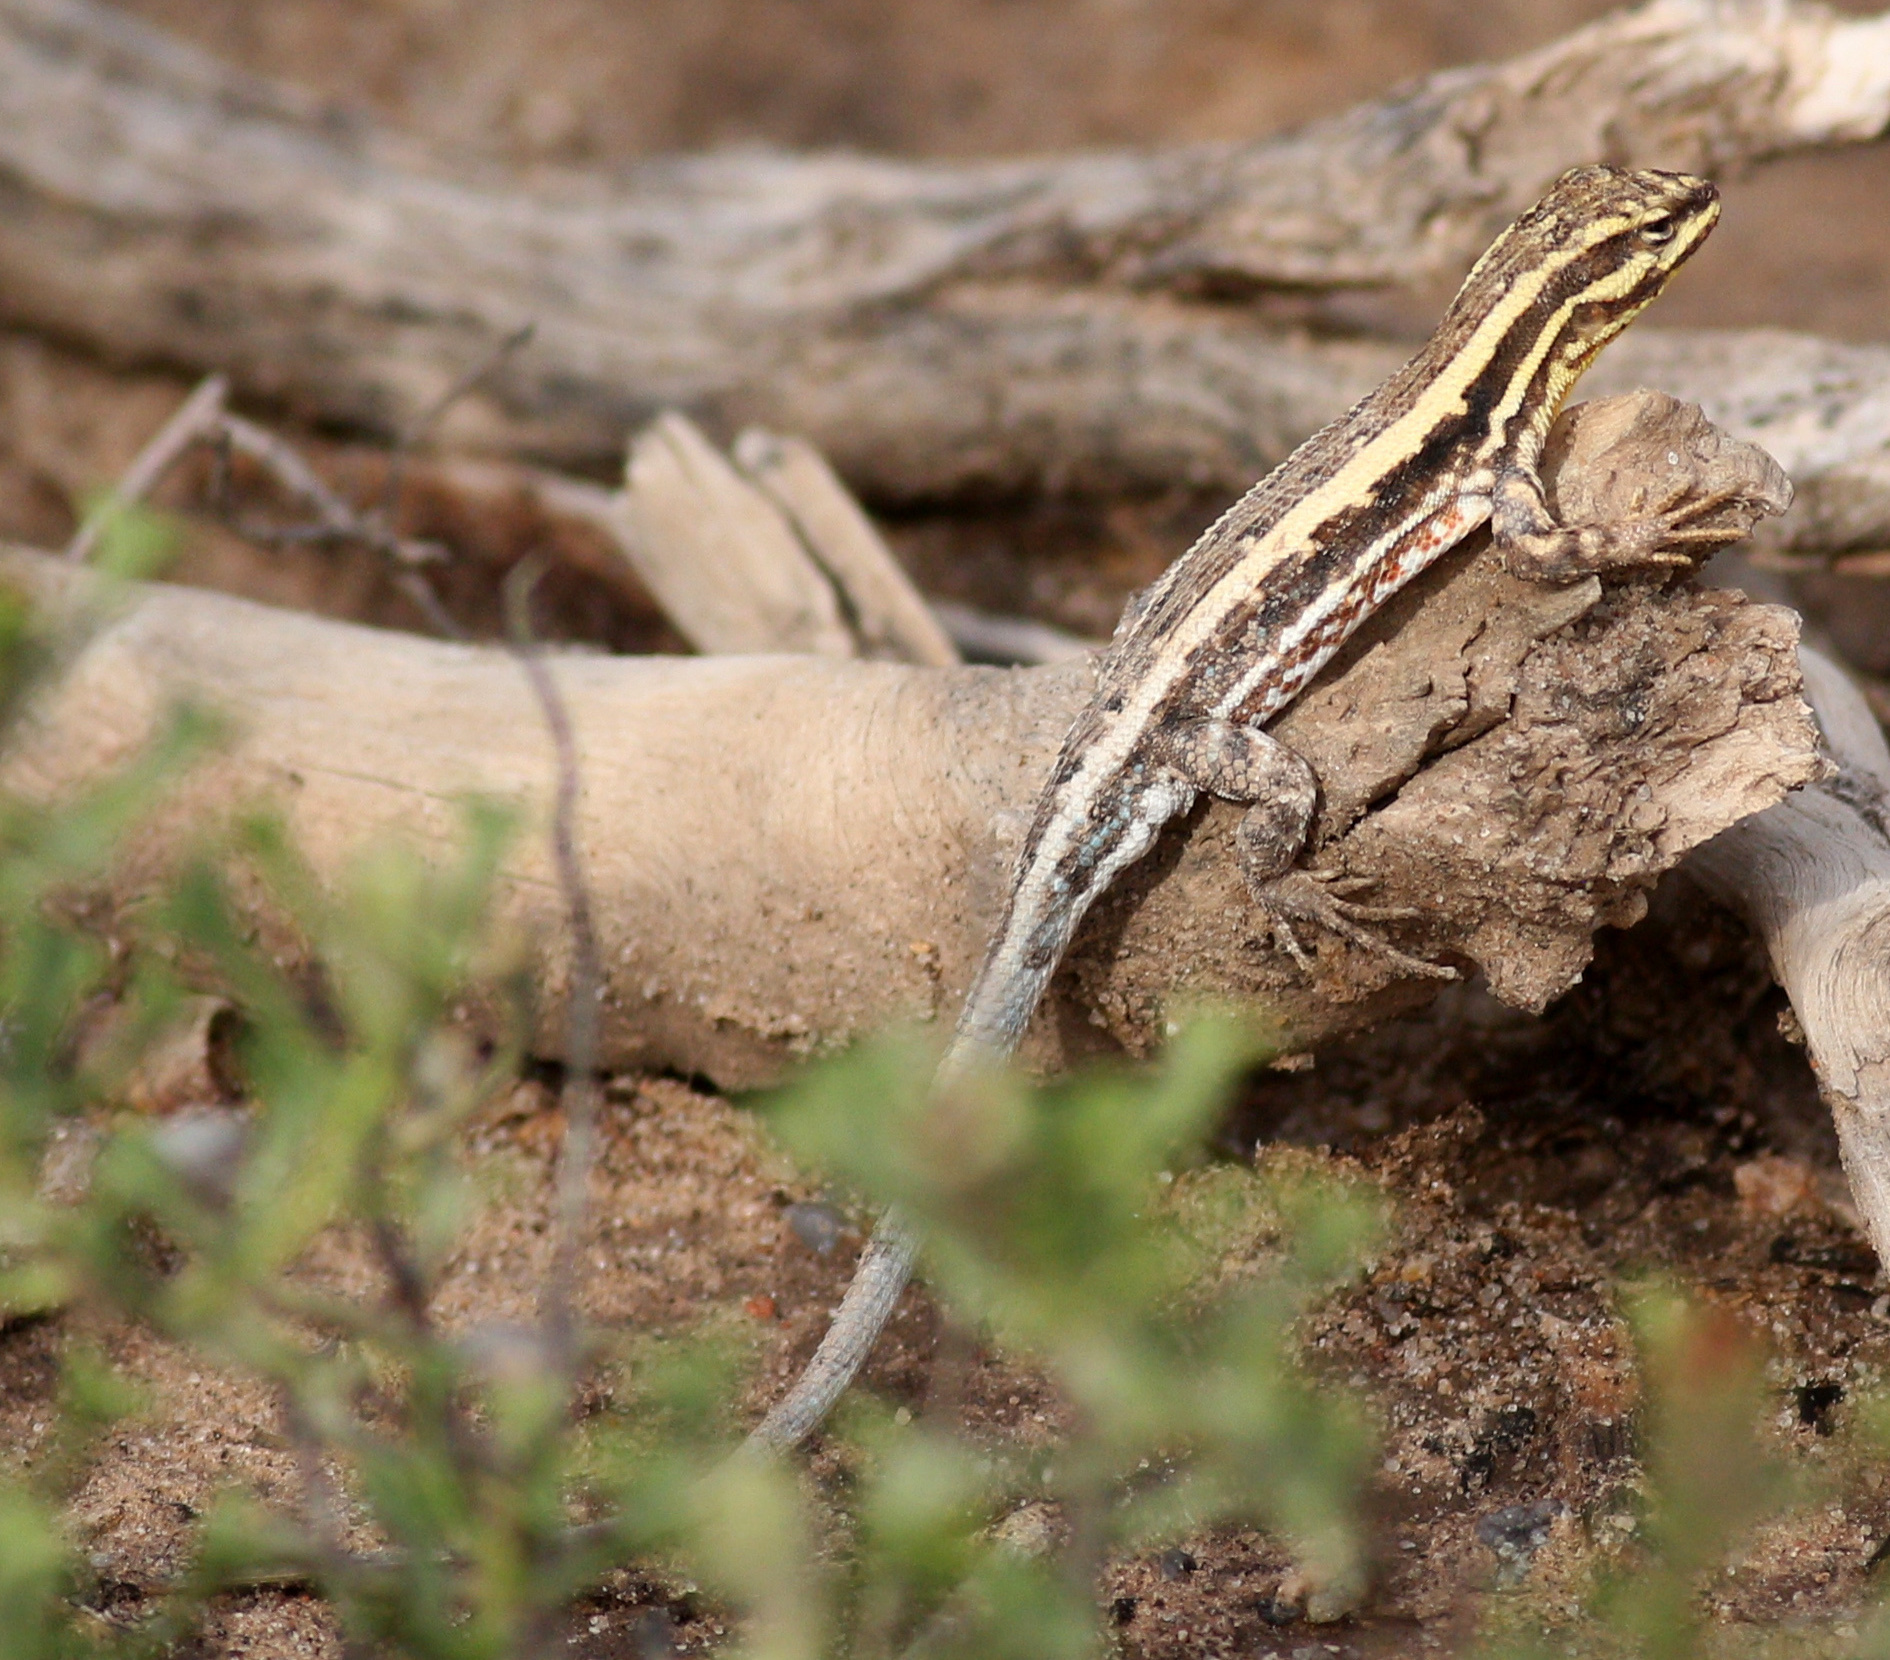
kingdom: Animalia
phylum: Chordata
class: Squamata
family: Liolaemidae
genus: Liolaemus
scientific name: Liolaemus chacoensis
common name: Chaco tree iguana
